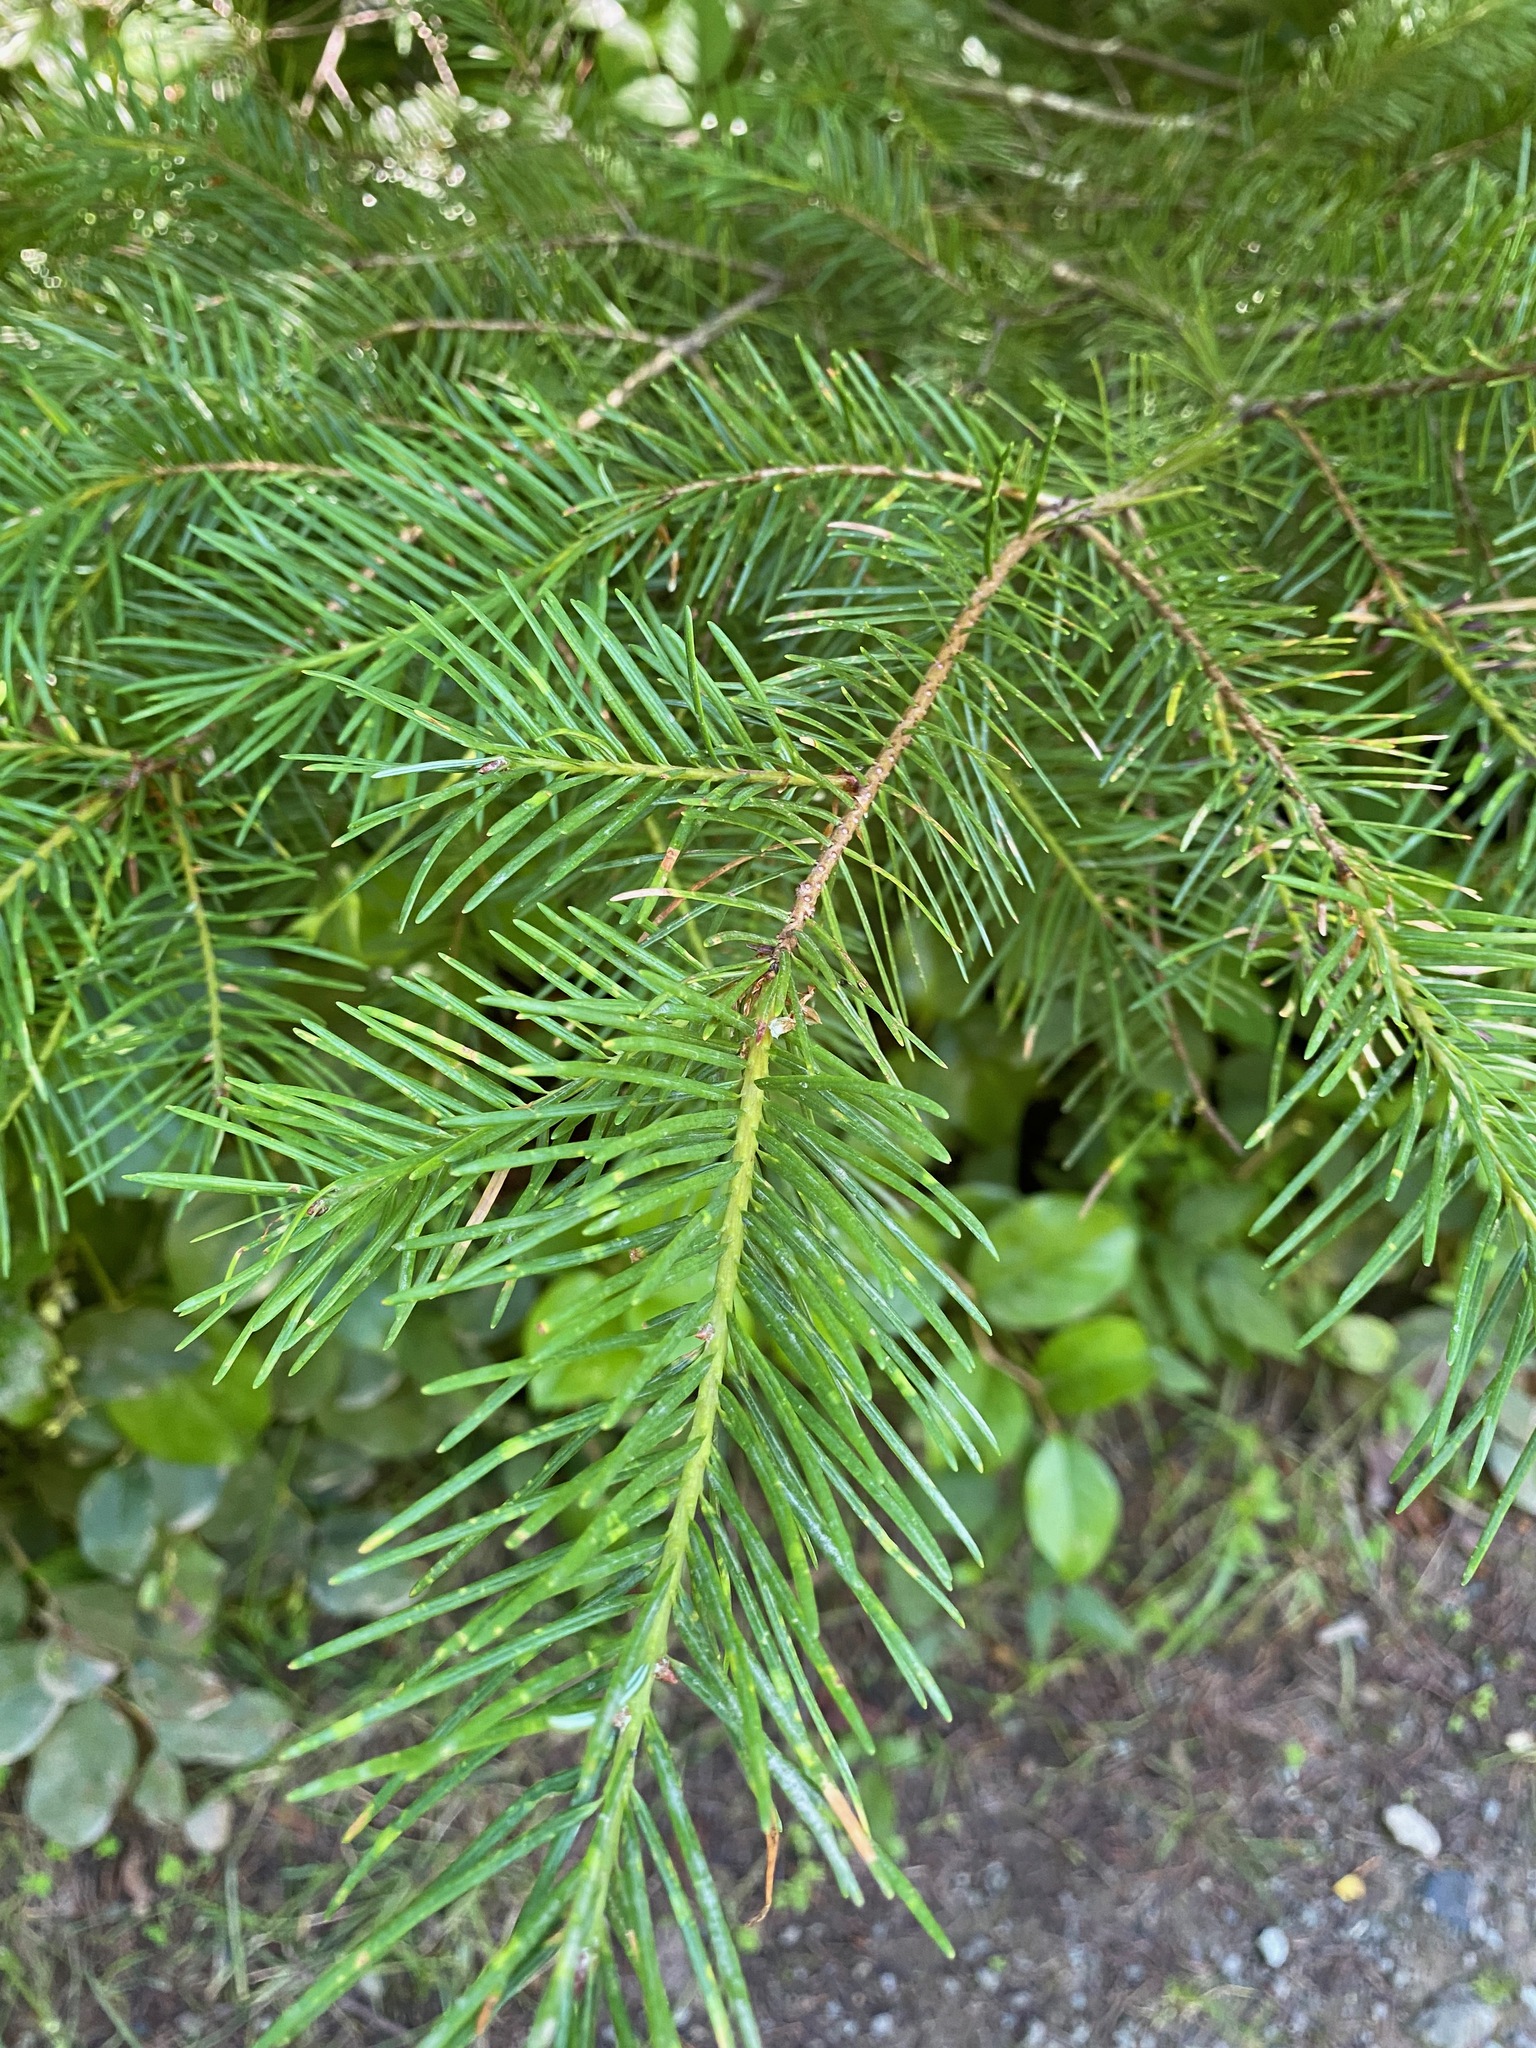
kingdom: Plantae
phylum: Tracheophyta
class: Pinopsida
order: Pinales
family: Pinaceae
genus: Pseudotsuga
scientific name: Pseudotsuga menziesii
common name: Douglas fir
